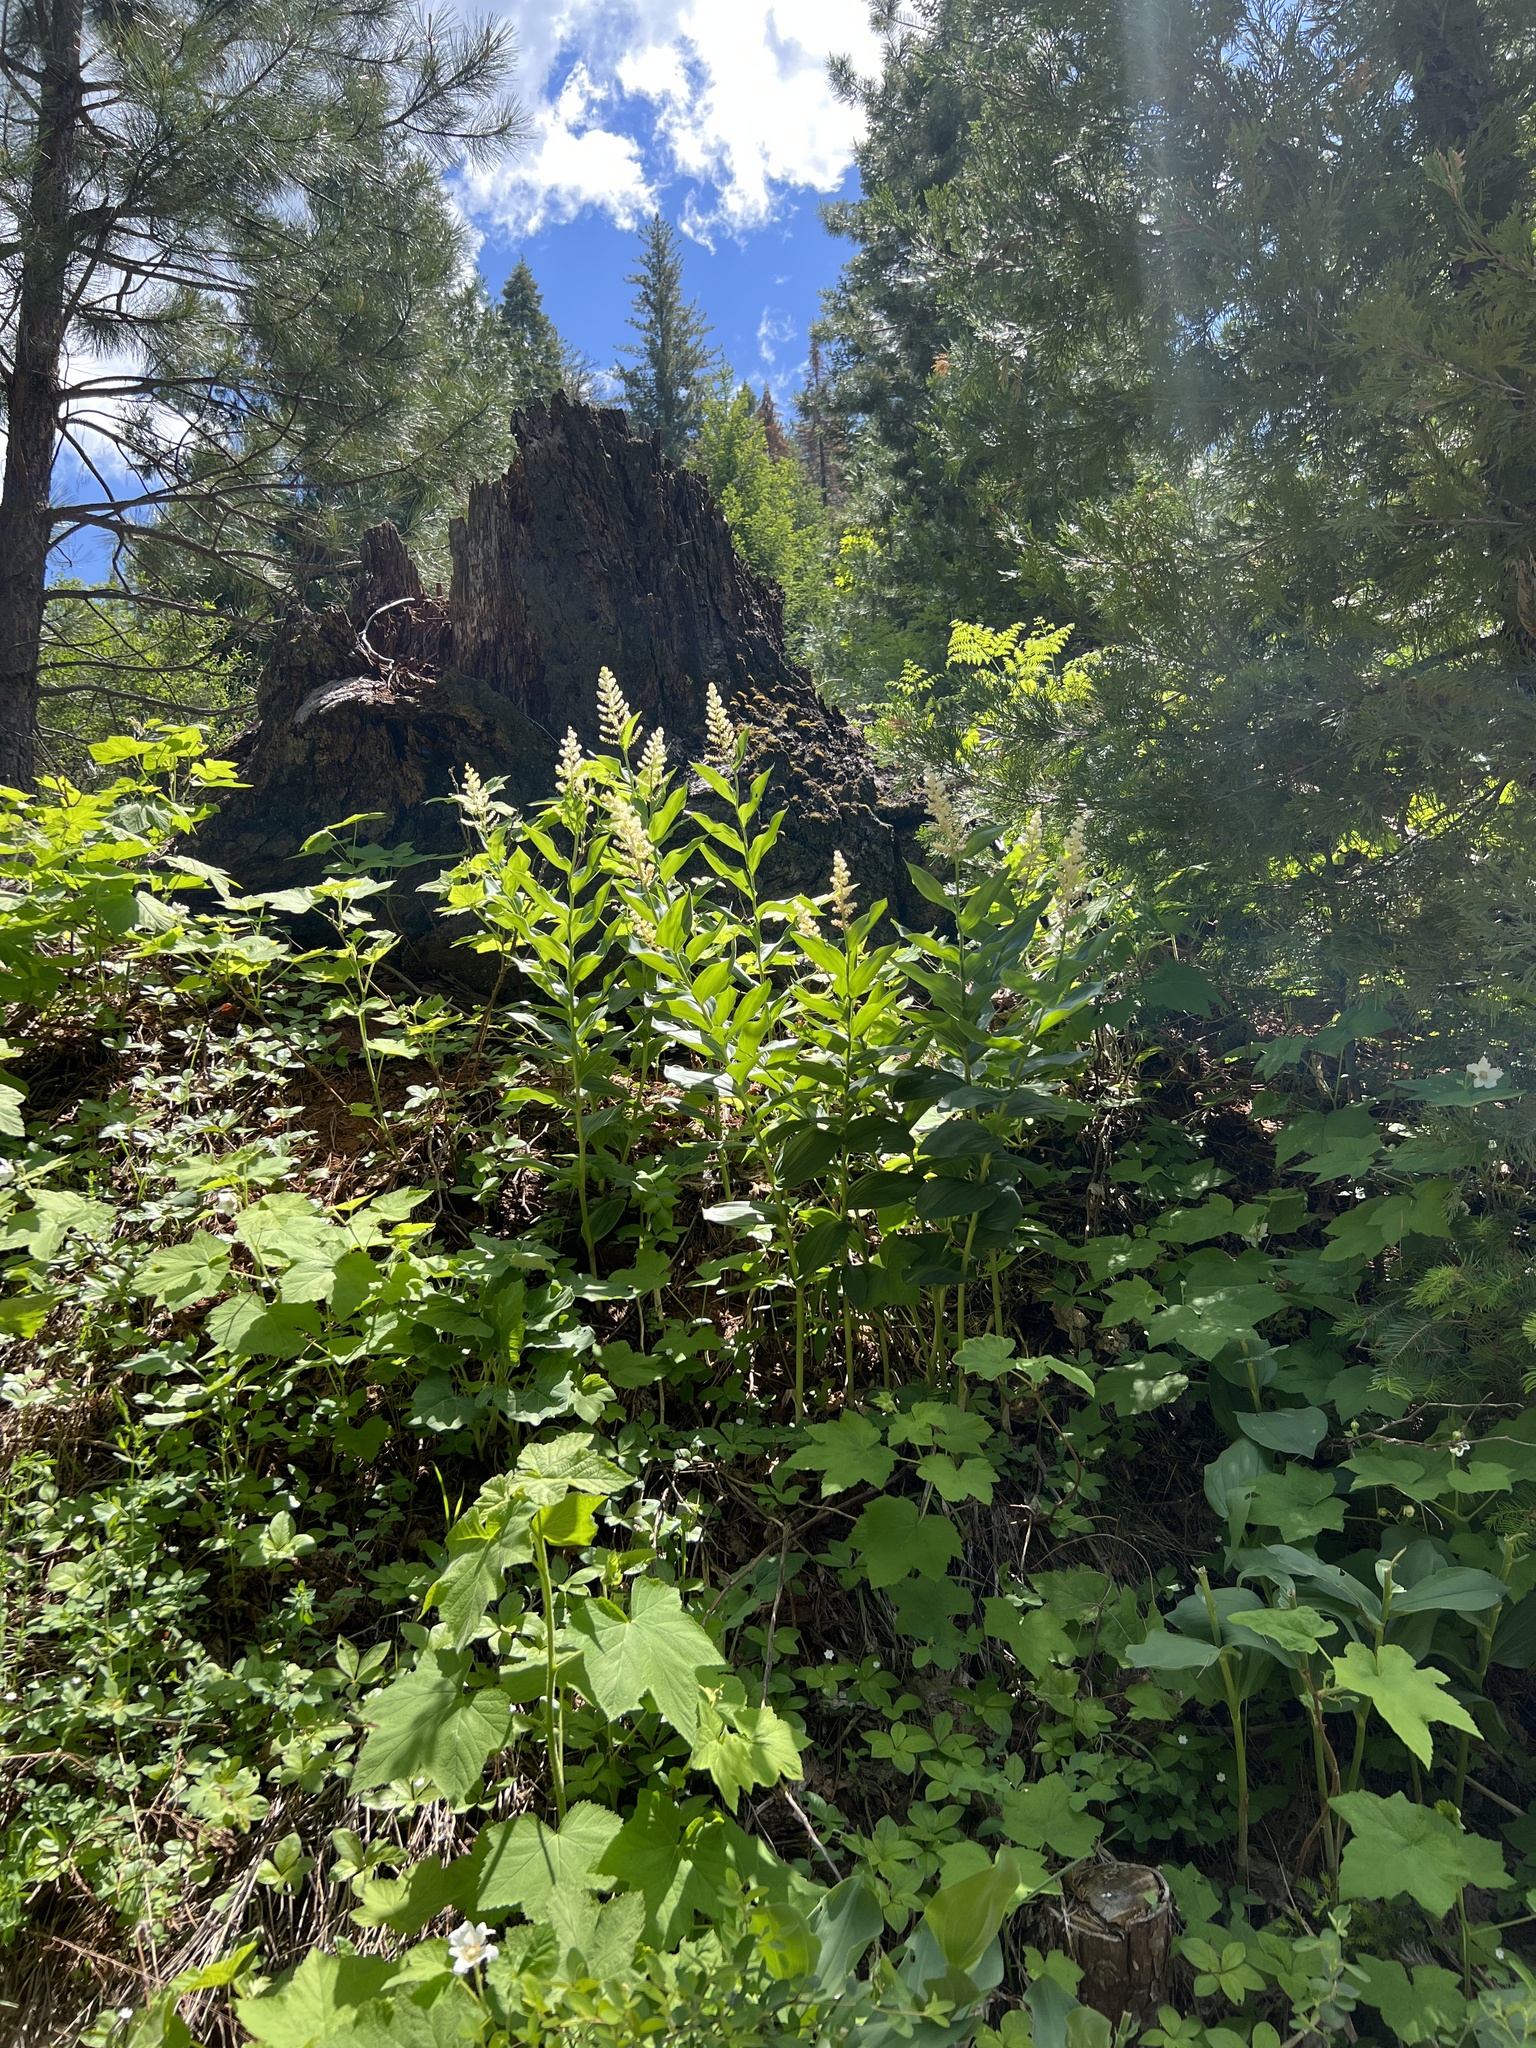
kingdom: Plantae
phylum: Tracheophyta
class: Liliopsida
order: Asparagales
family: Asparagaceae
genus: Maianthemum
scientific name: Maianthemum racemosum
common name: False spikenard
